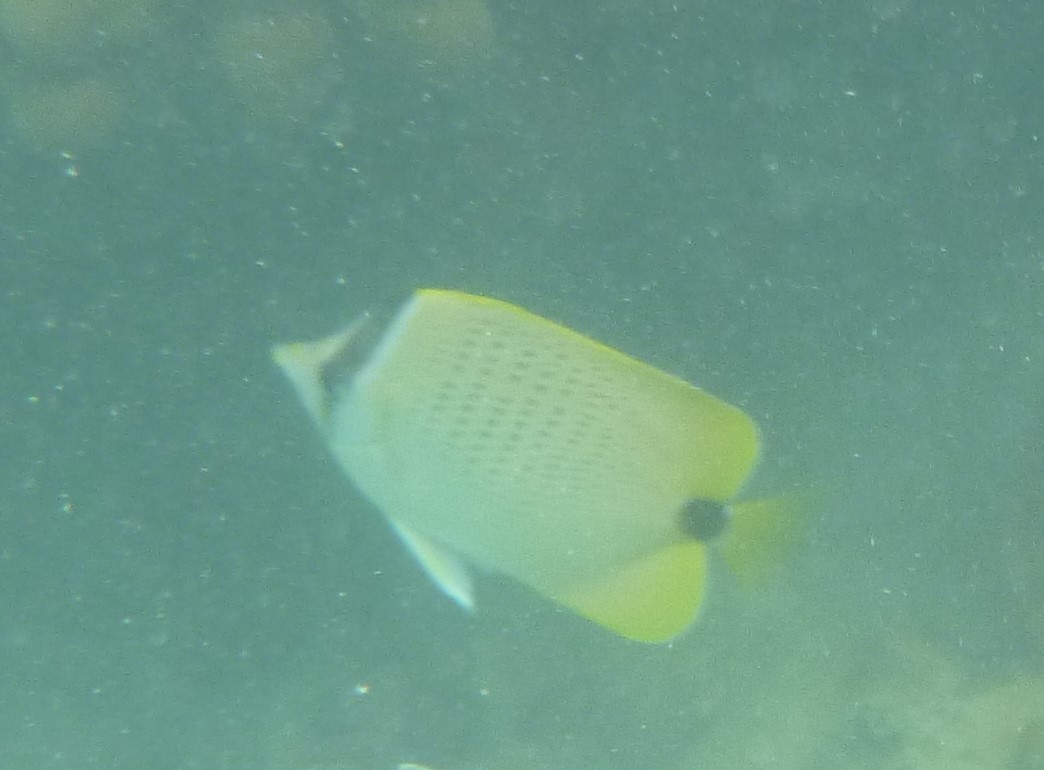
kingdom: Animalia
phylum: Chordata
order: Perciformes
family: Chaetodontidae
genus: Chaetodon
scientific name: Chaetodon miliaris
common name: Lemon butterflyfish
